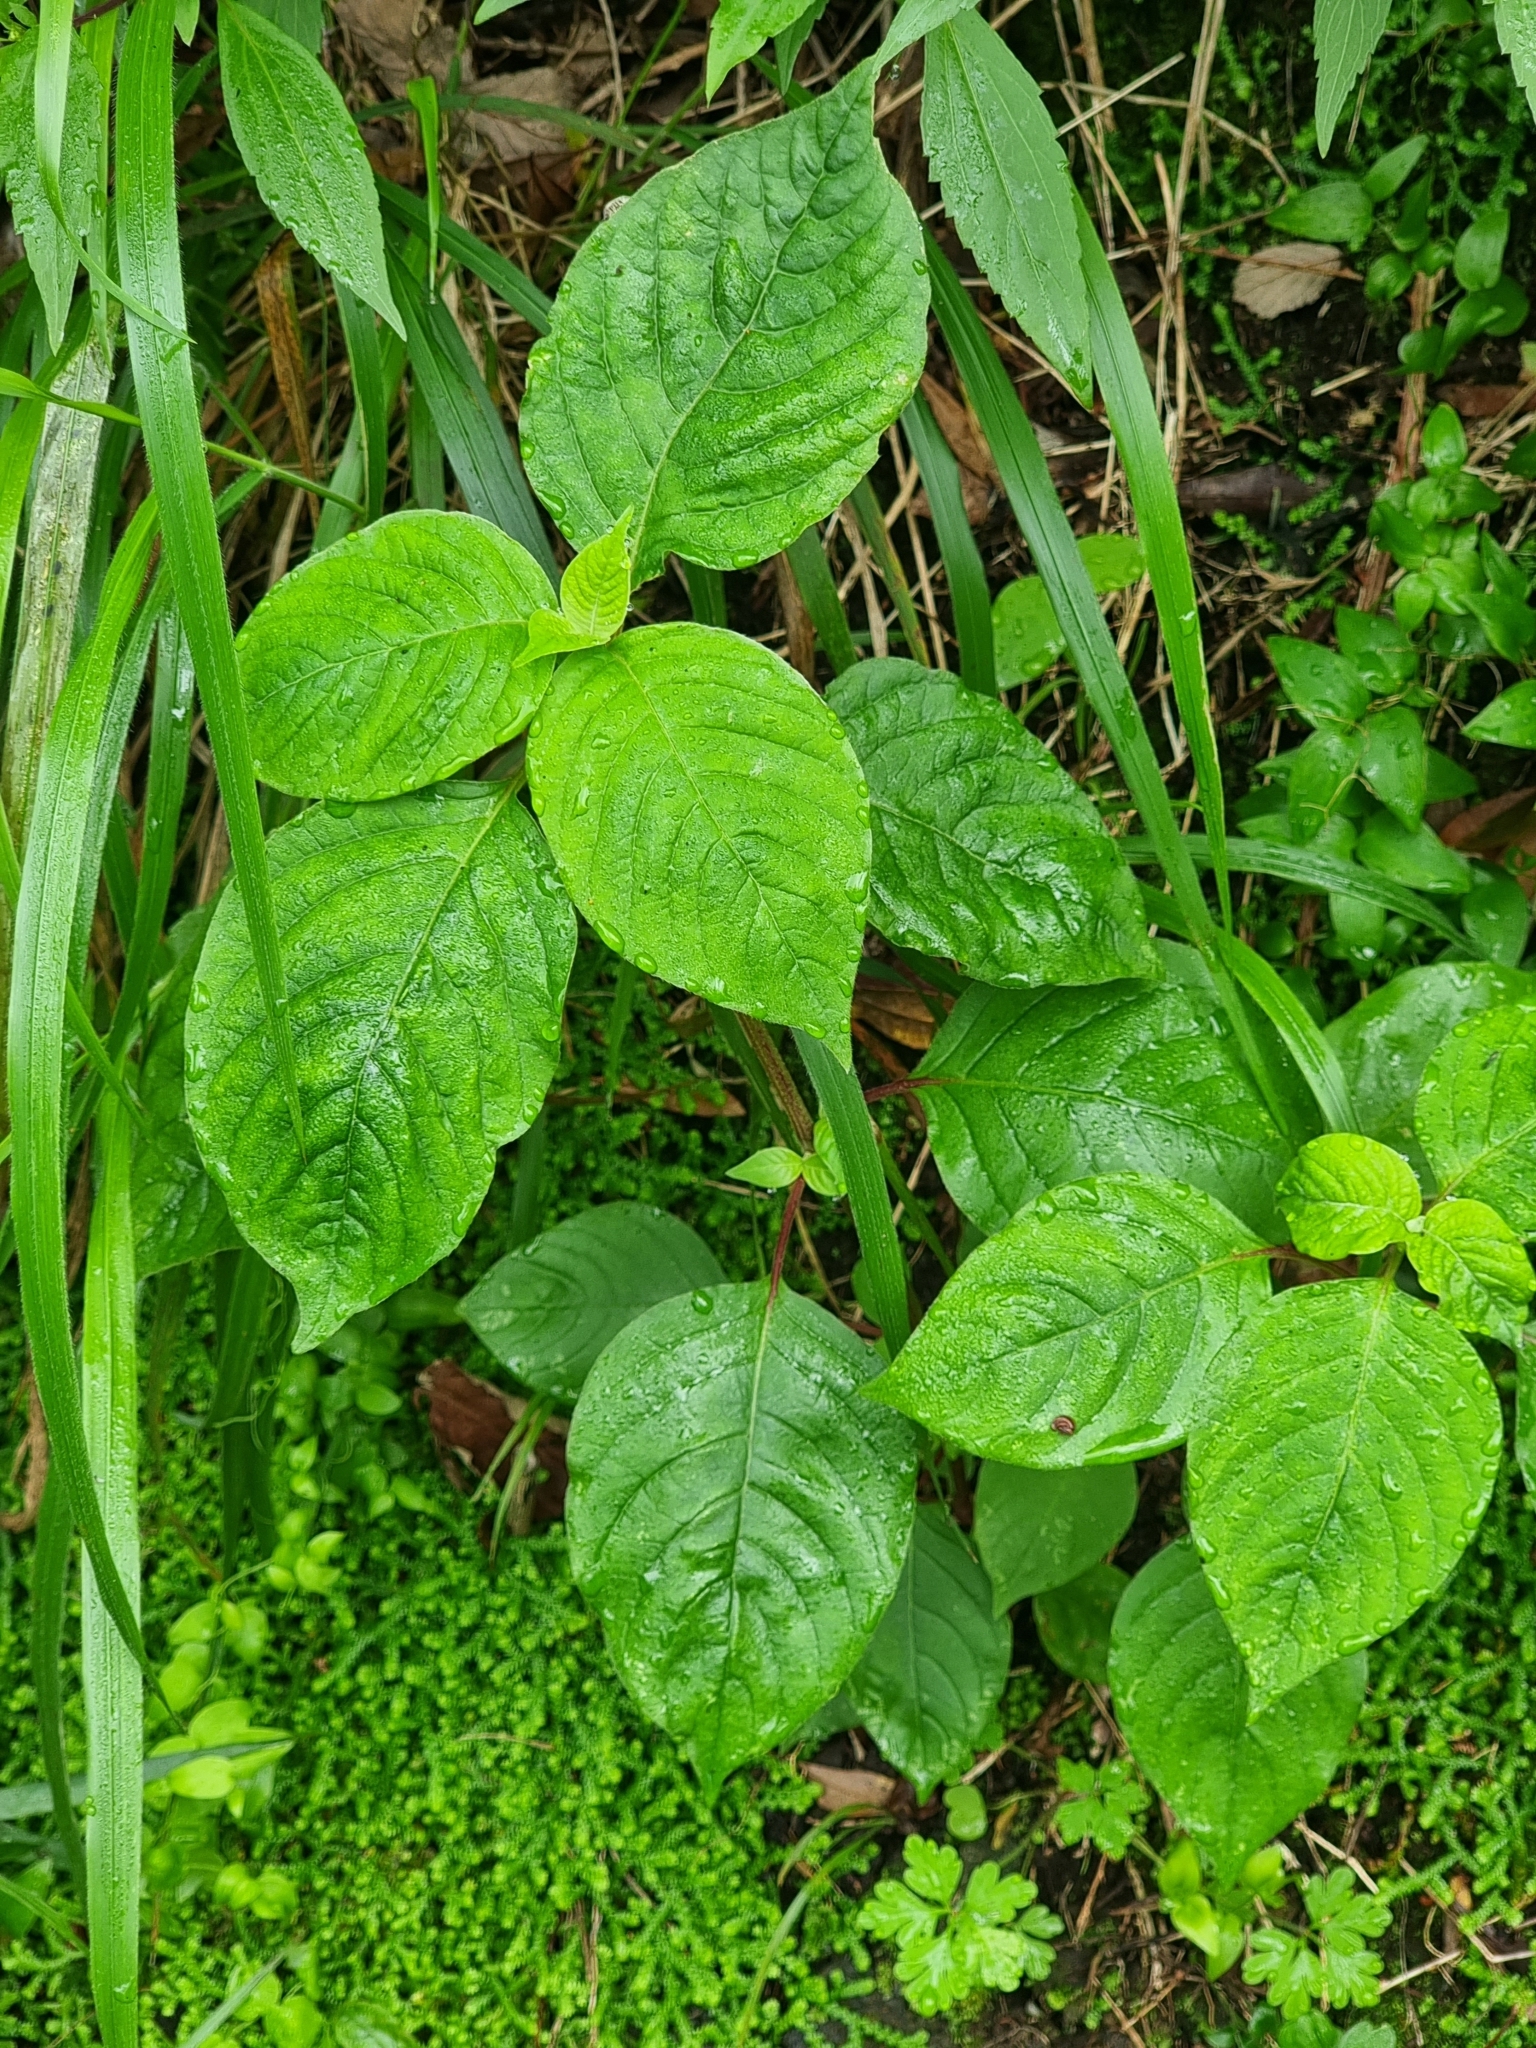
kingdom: Plantae
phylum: Tracheophyta
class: Magnoliopsida
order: Caryophyllales
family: Amaranthaceae
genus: Achyranthes
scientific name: Achyranthes aspera
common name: Devil's horsewhip
